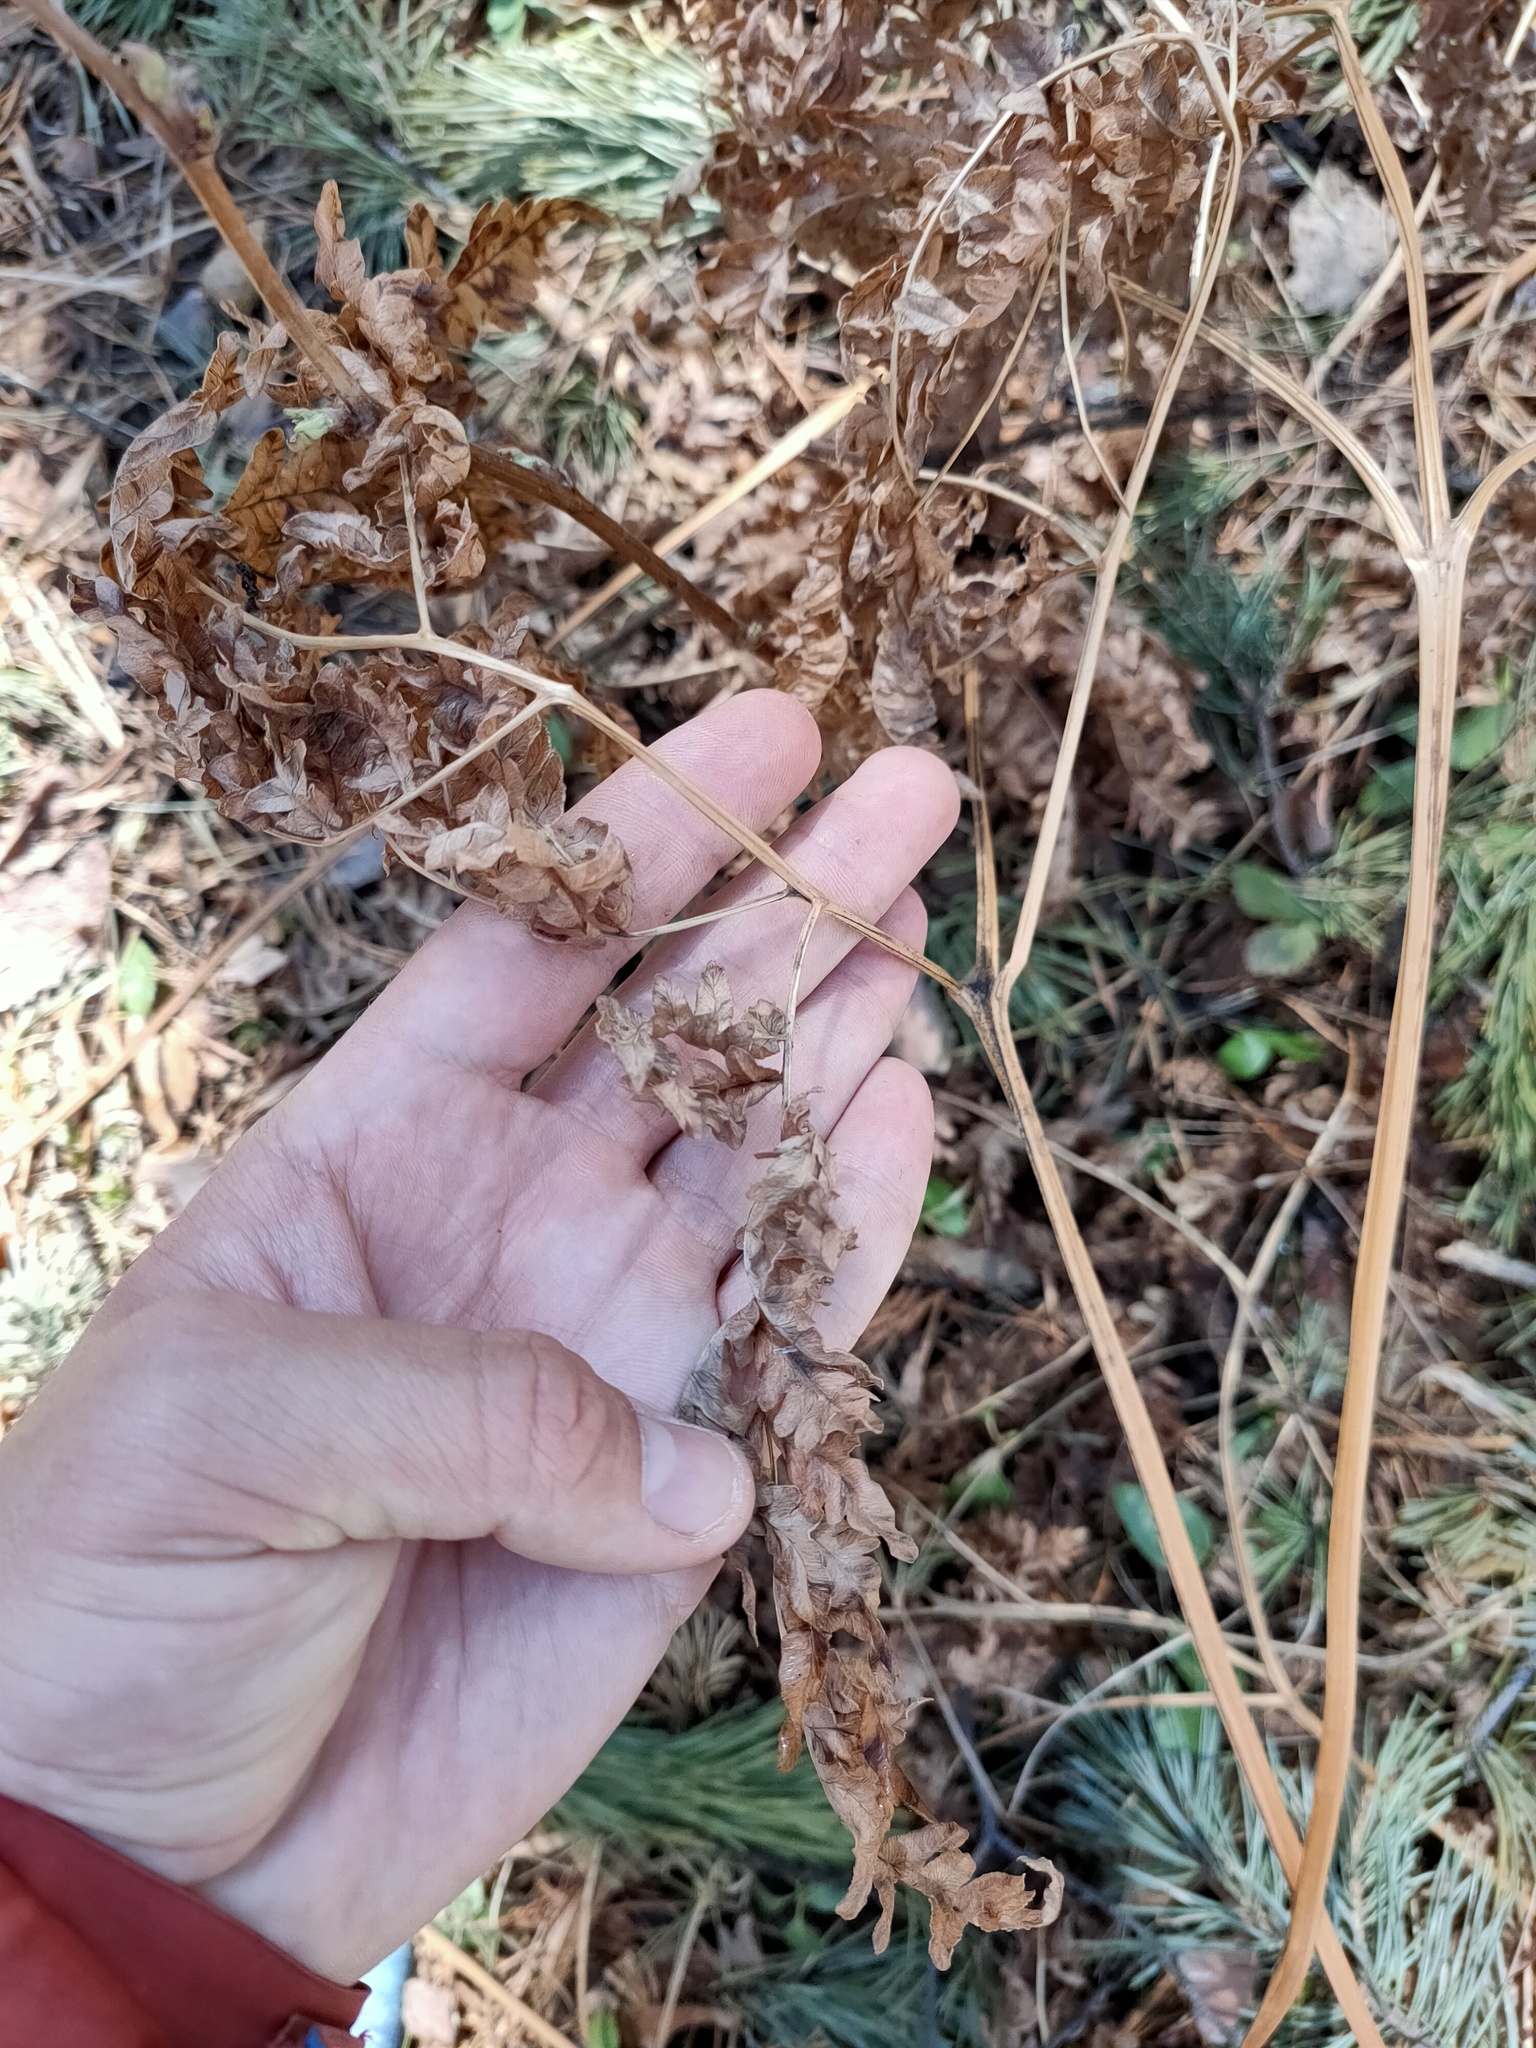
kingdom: Plantae
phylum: Tracheophyta
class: Polypodiopsida
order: Polypodiales
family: Dennstaedtiaceae
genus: Pteridium
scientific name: Pteridium aquilinum
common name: Bracken
